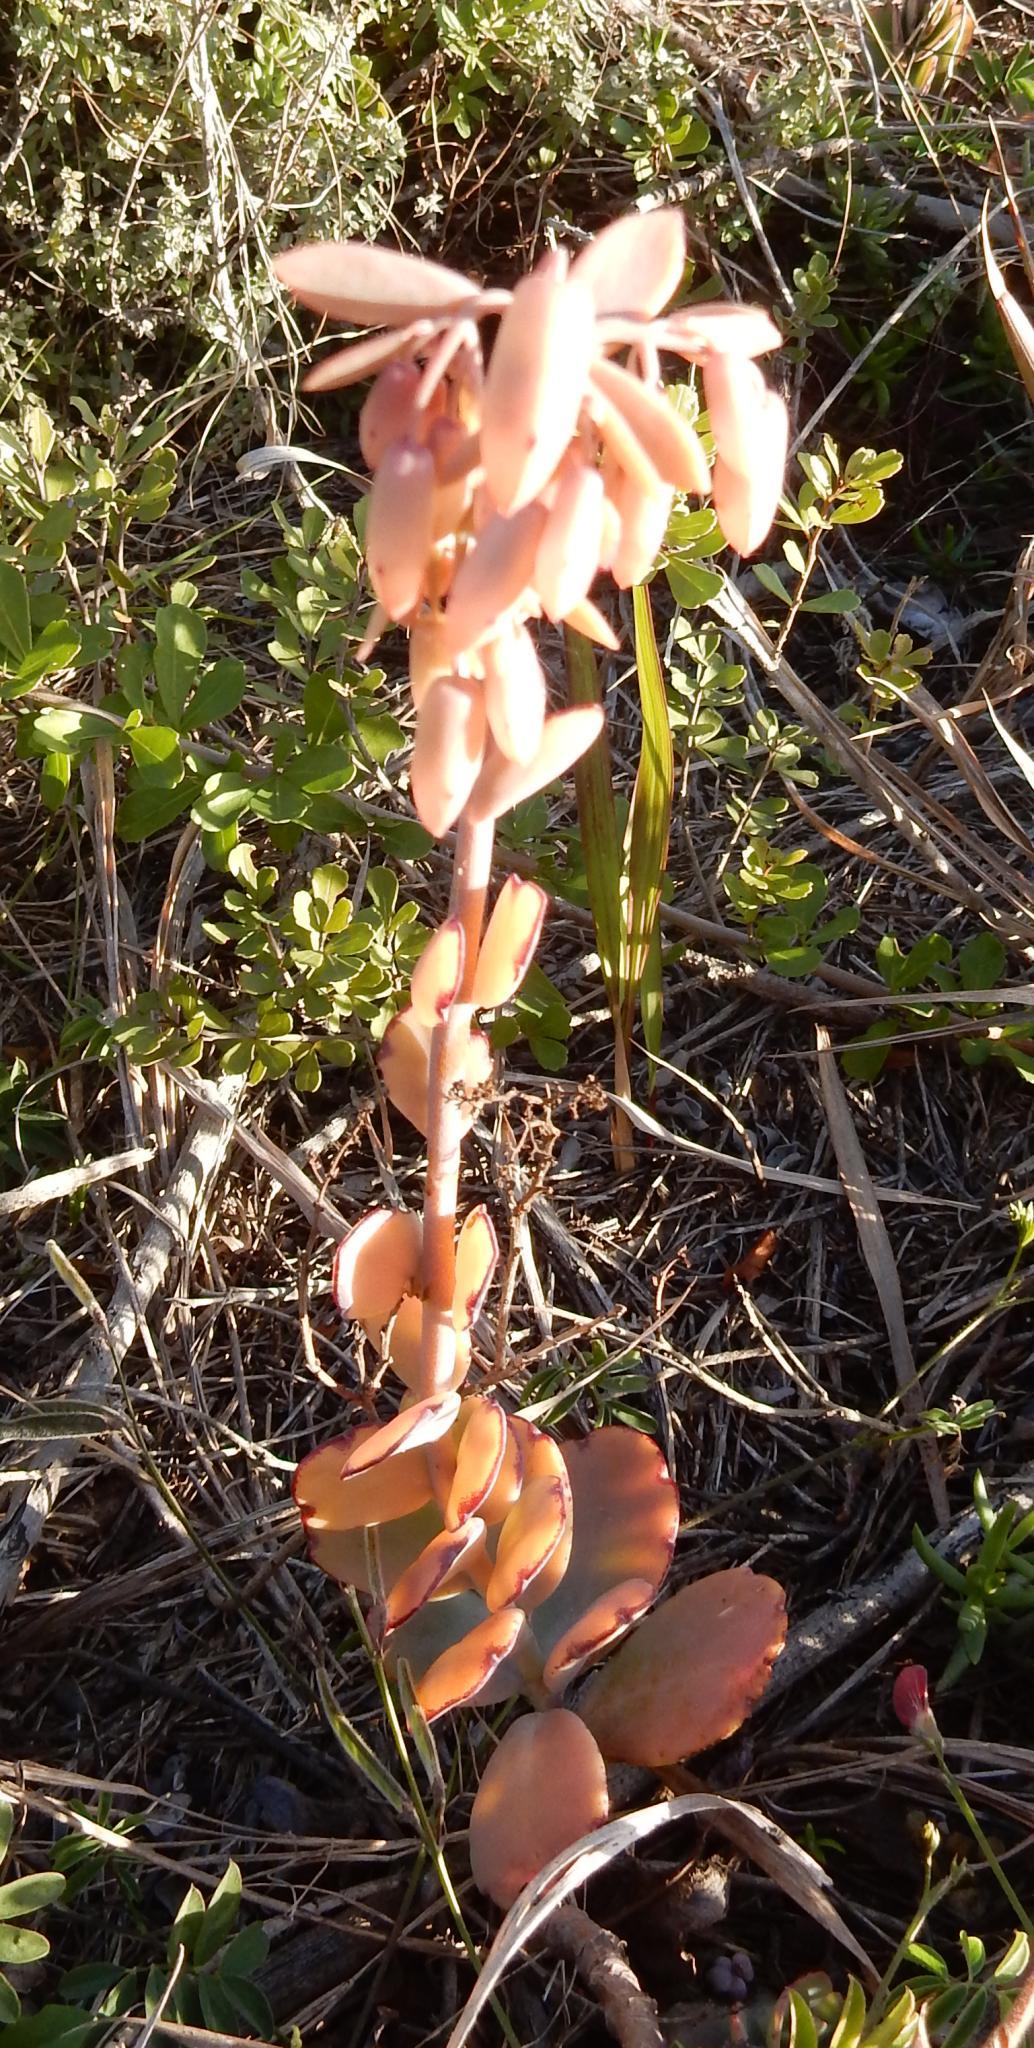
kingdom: Plantae
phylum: Tracheophyta
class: Magnoliopsida
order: Saxifragales
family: Crassulaceae
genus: Kalanchoe
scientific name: Kalanchoe fedtschenkoi
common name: Lavender scallops
